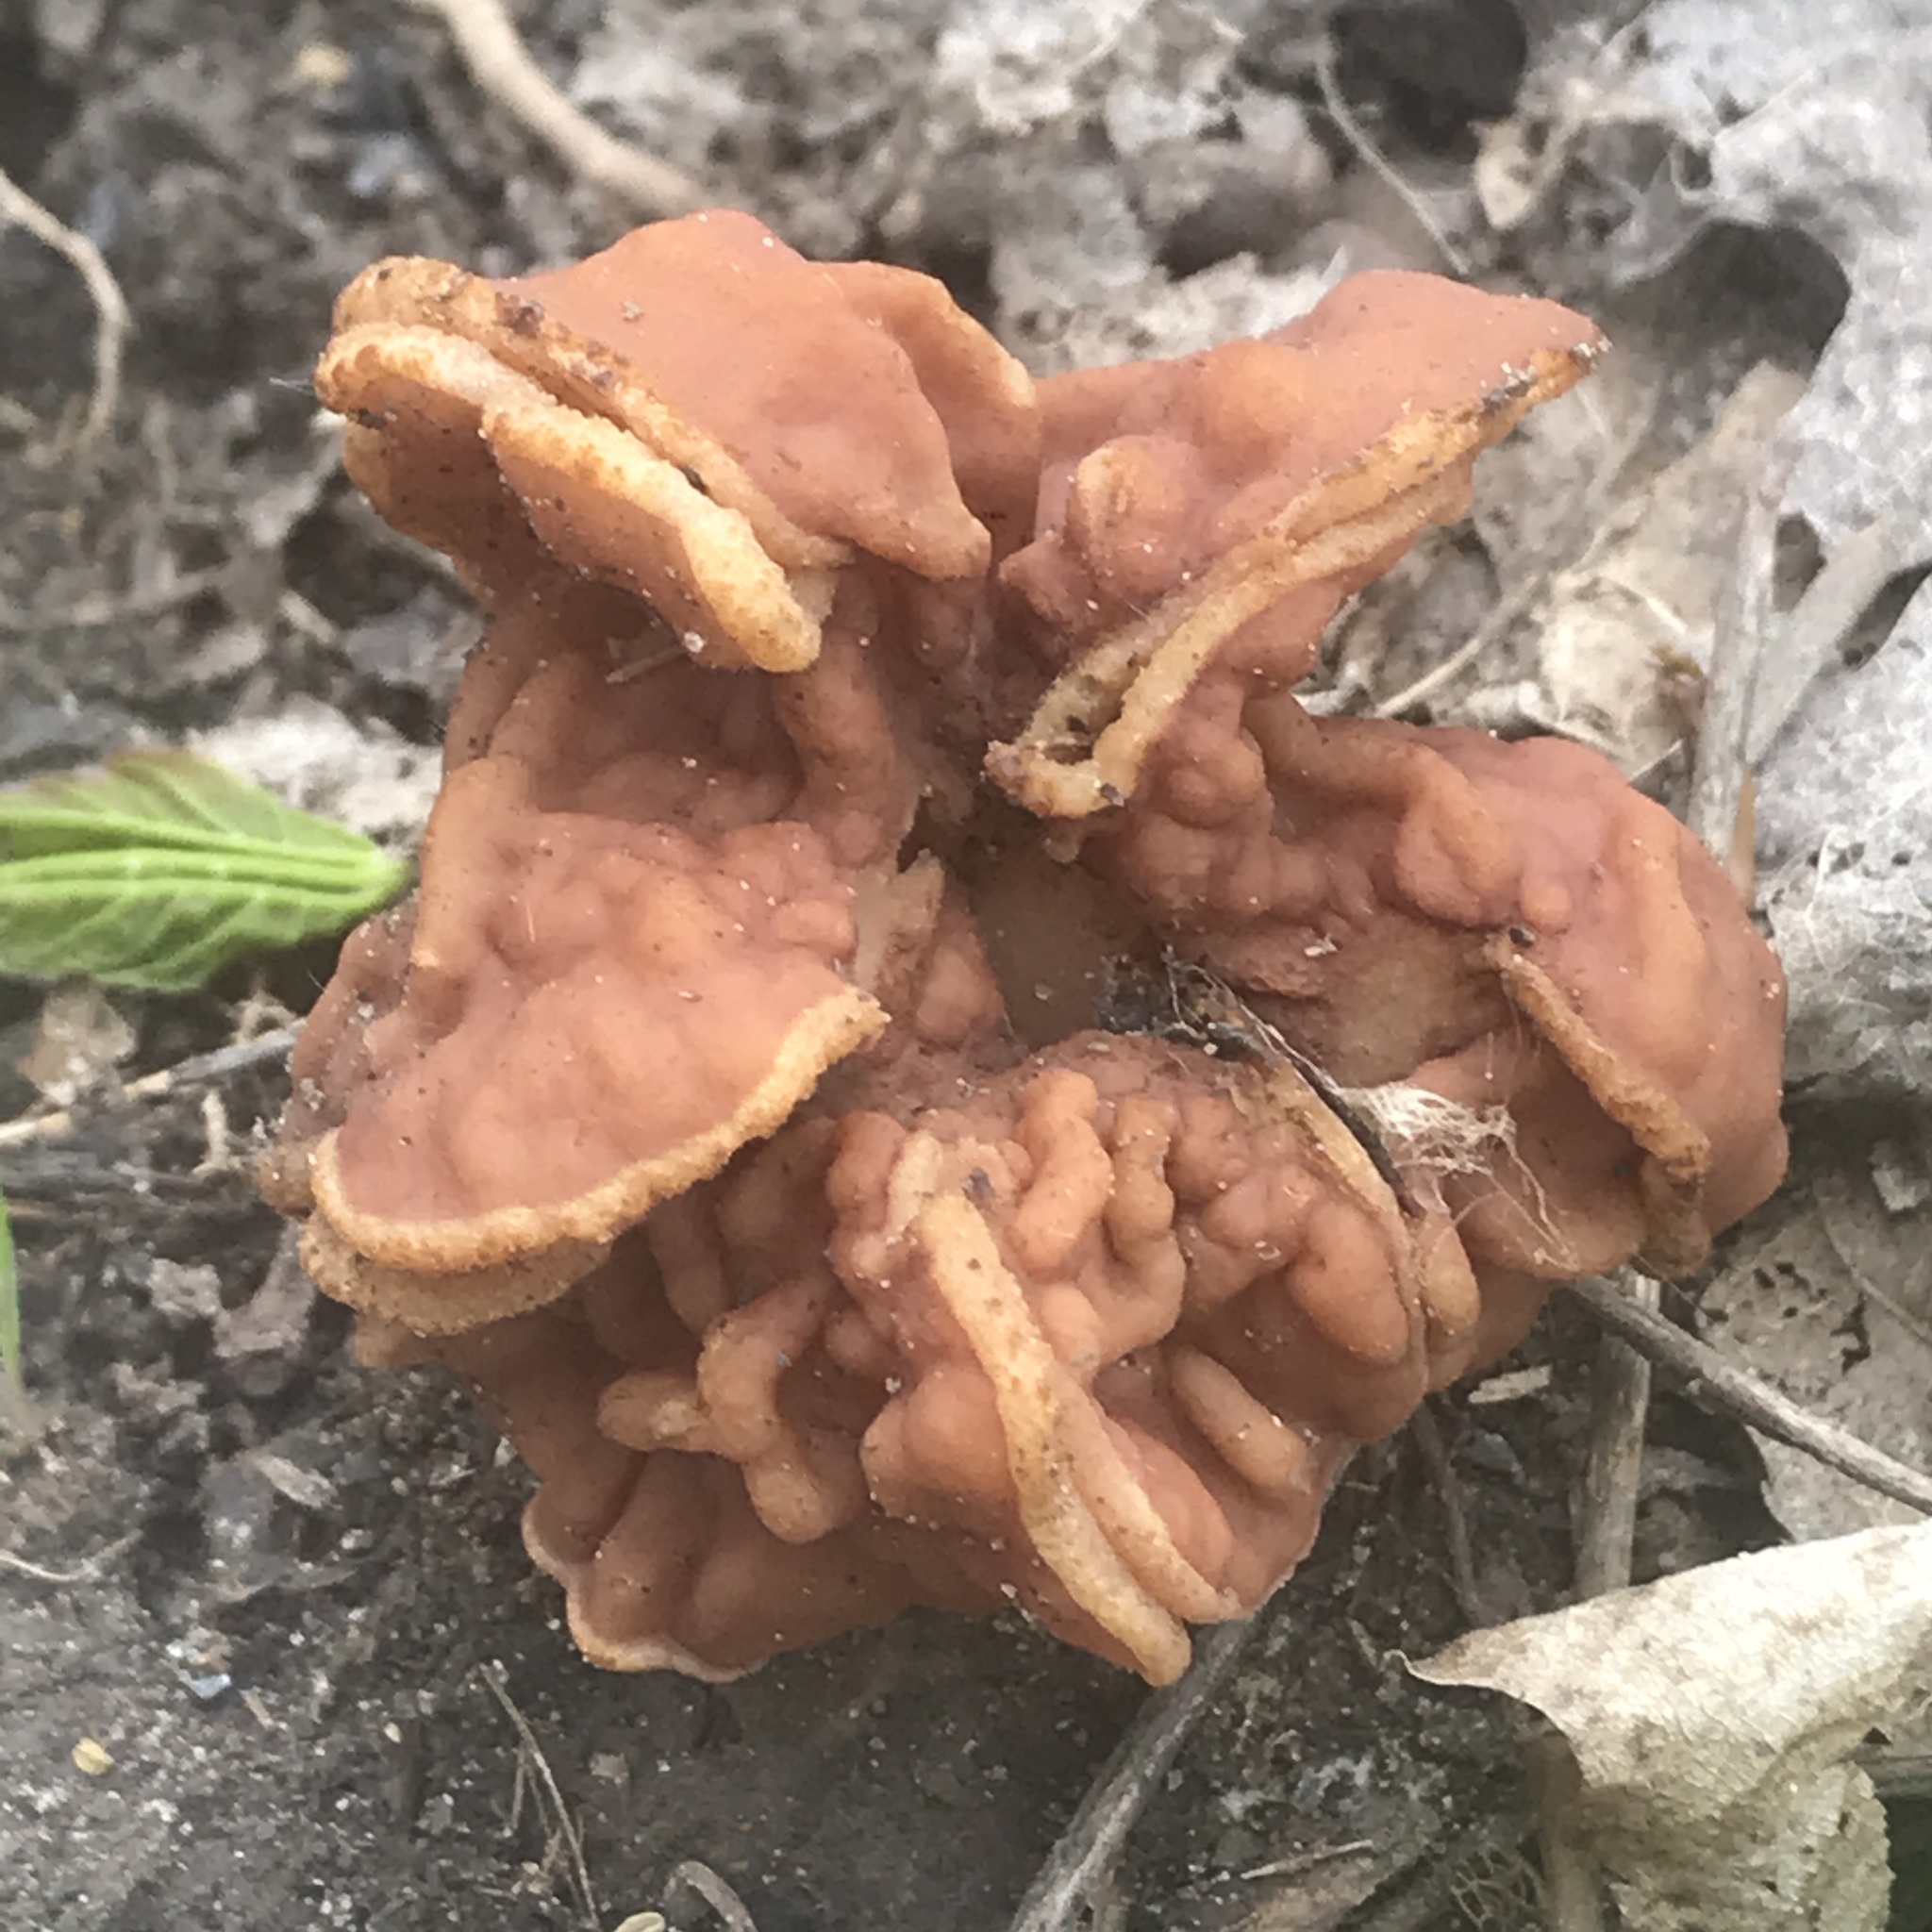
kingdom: Fungi
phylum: Ascomycota
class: Pezizomycetes
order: Pezizales
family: Discinaceae
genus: Discina
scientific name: Discina brunnea
